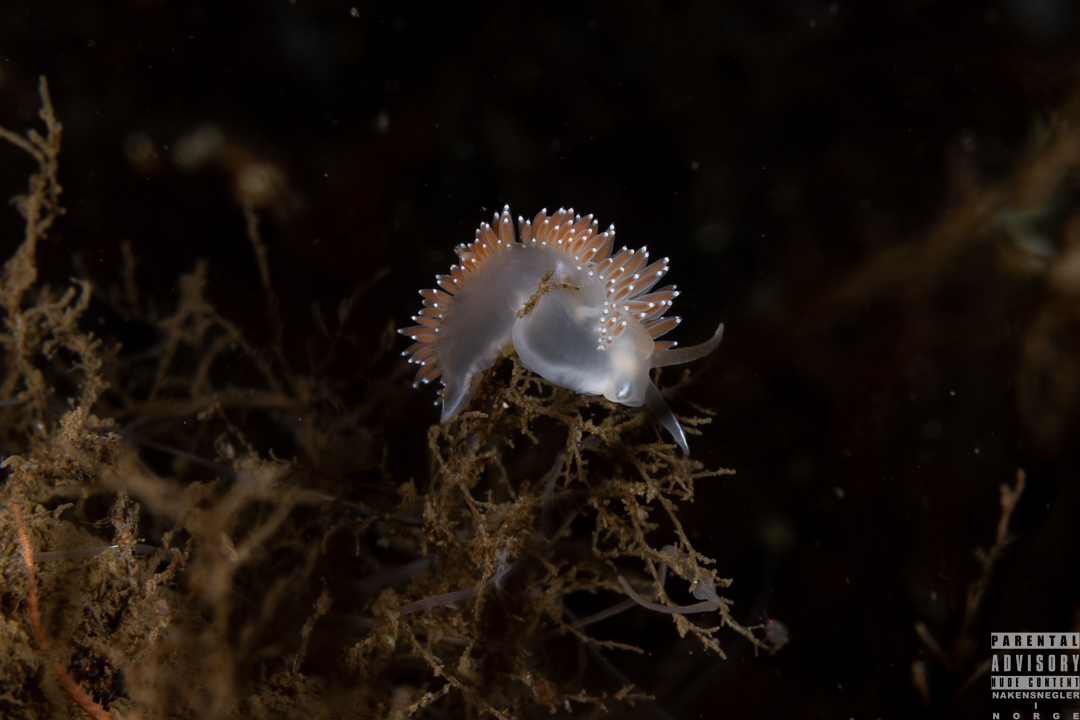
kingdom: Animalia
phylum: Mollusca
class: Gastropoda
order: Nudibranchia
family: Coryphellidae
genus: Coryphella
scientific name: Coryphella verrucosa
